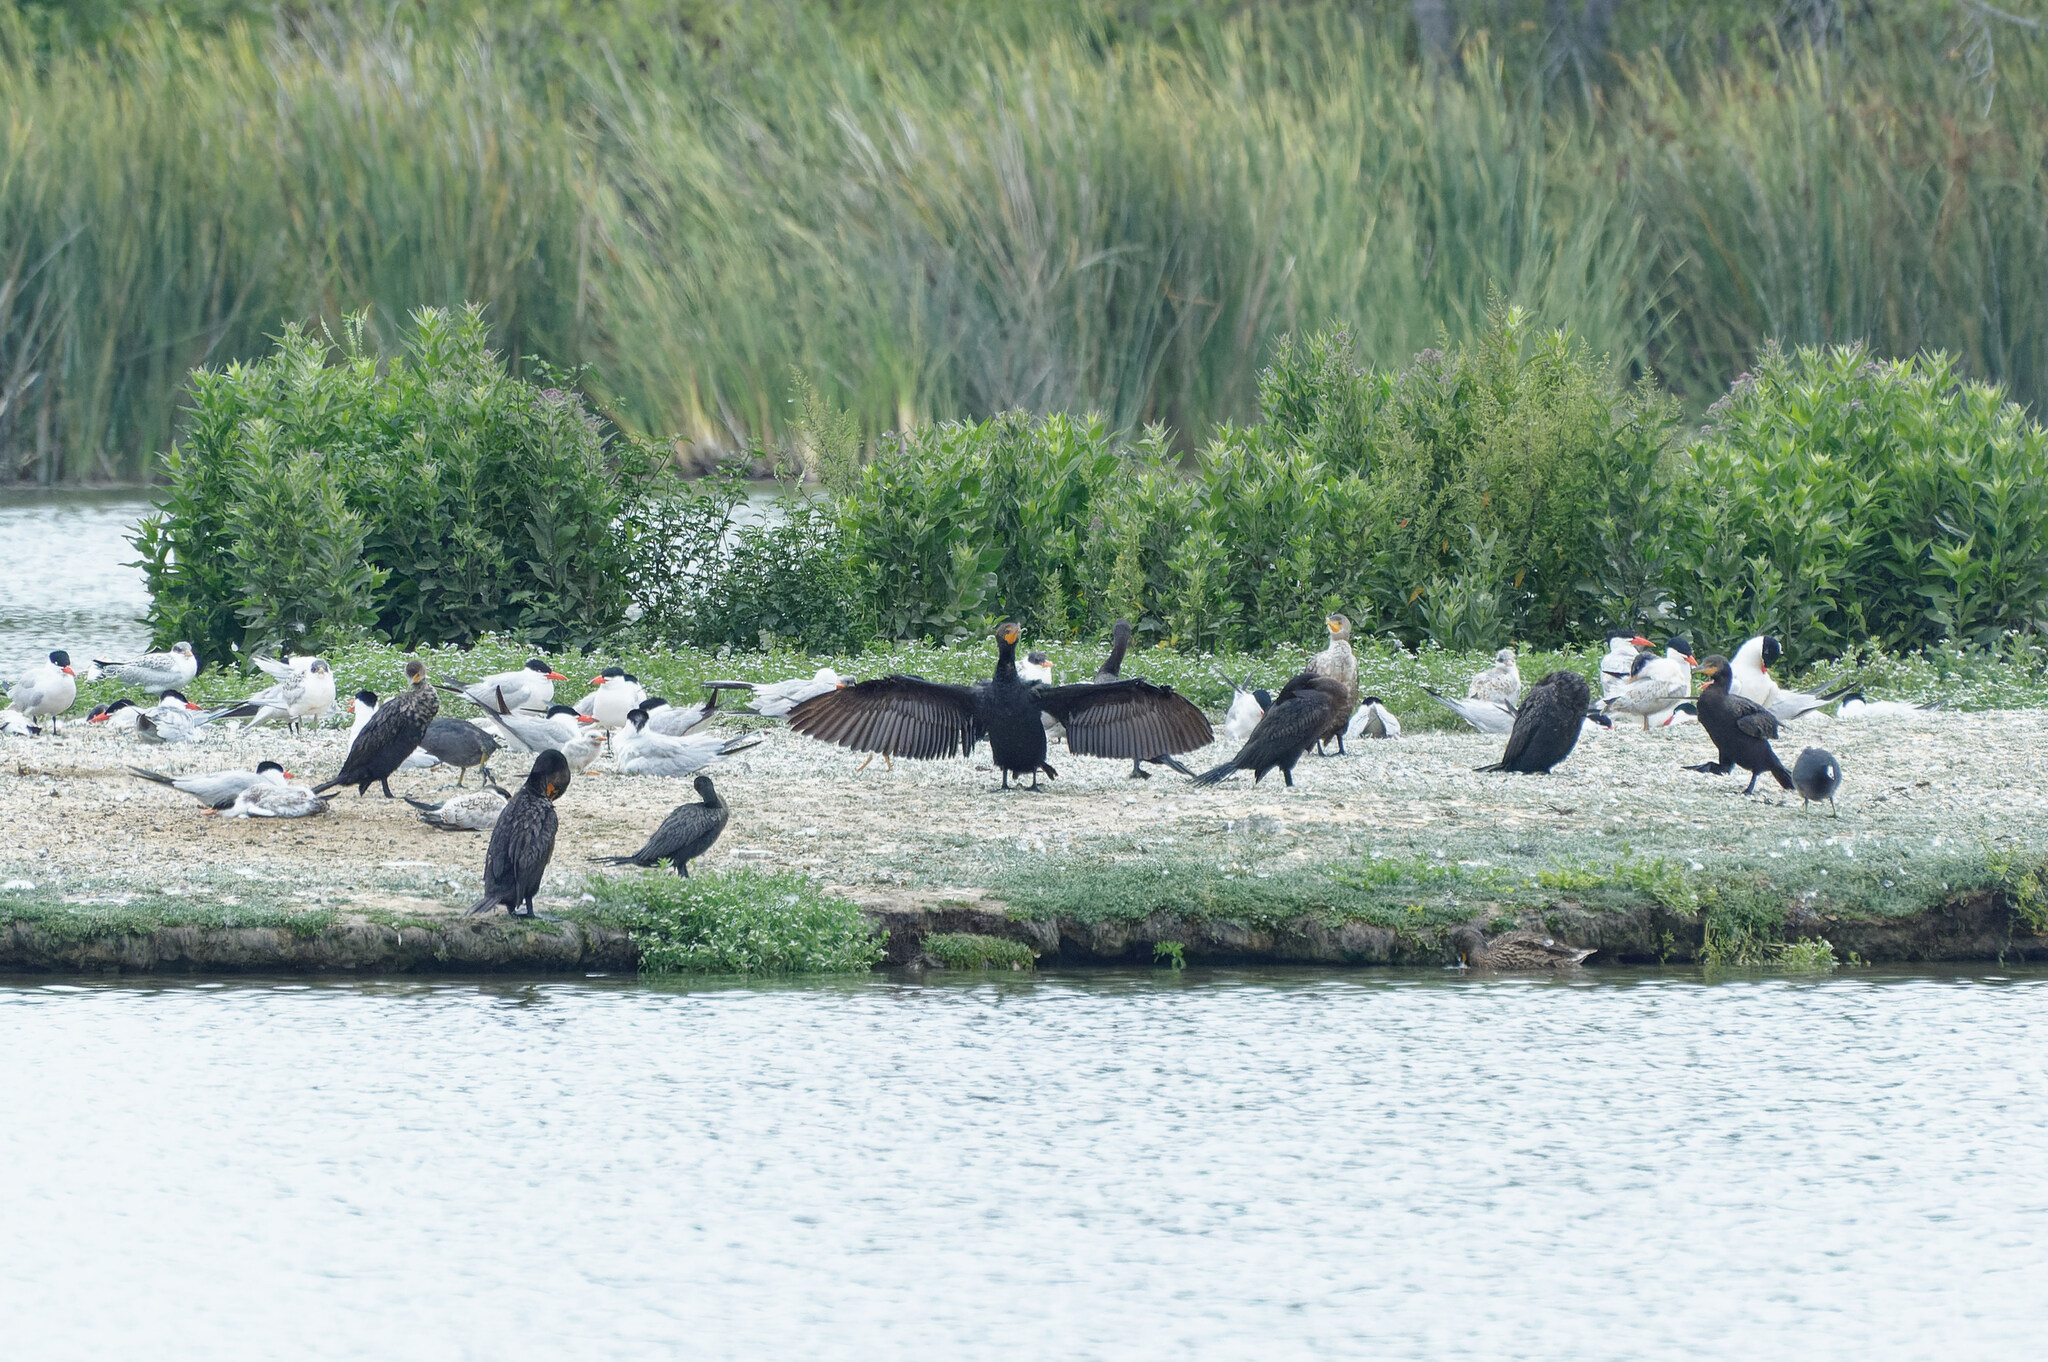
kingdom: Animalia
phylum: Chordata
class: Aves
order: Suliformes
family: Phalacrocoracidae
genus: Phalacrocorax
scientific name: Phalacrocorax auritus
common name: Double-crested cormorant
